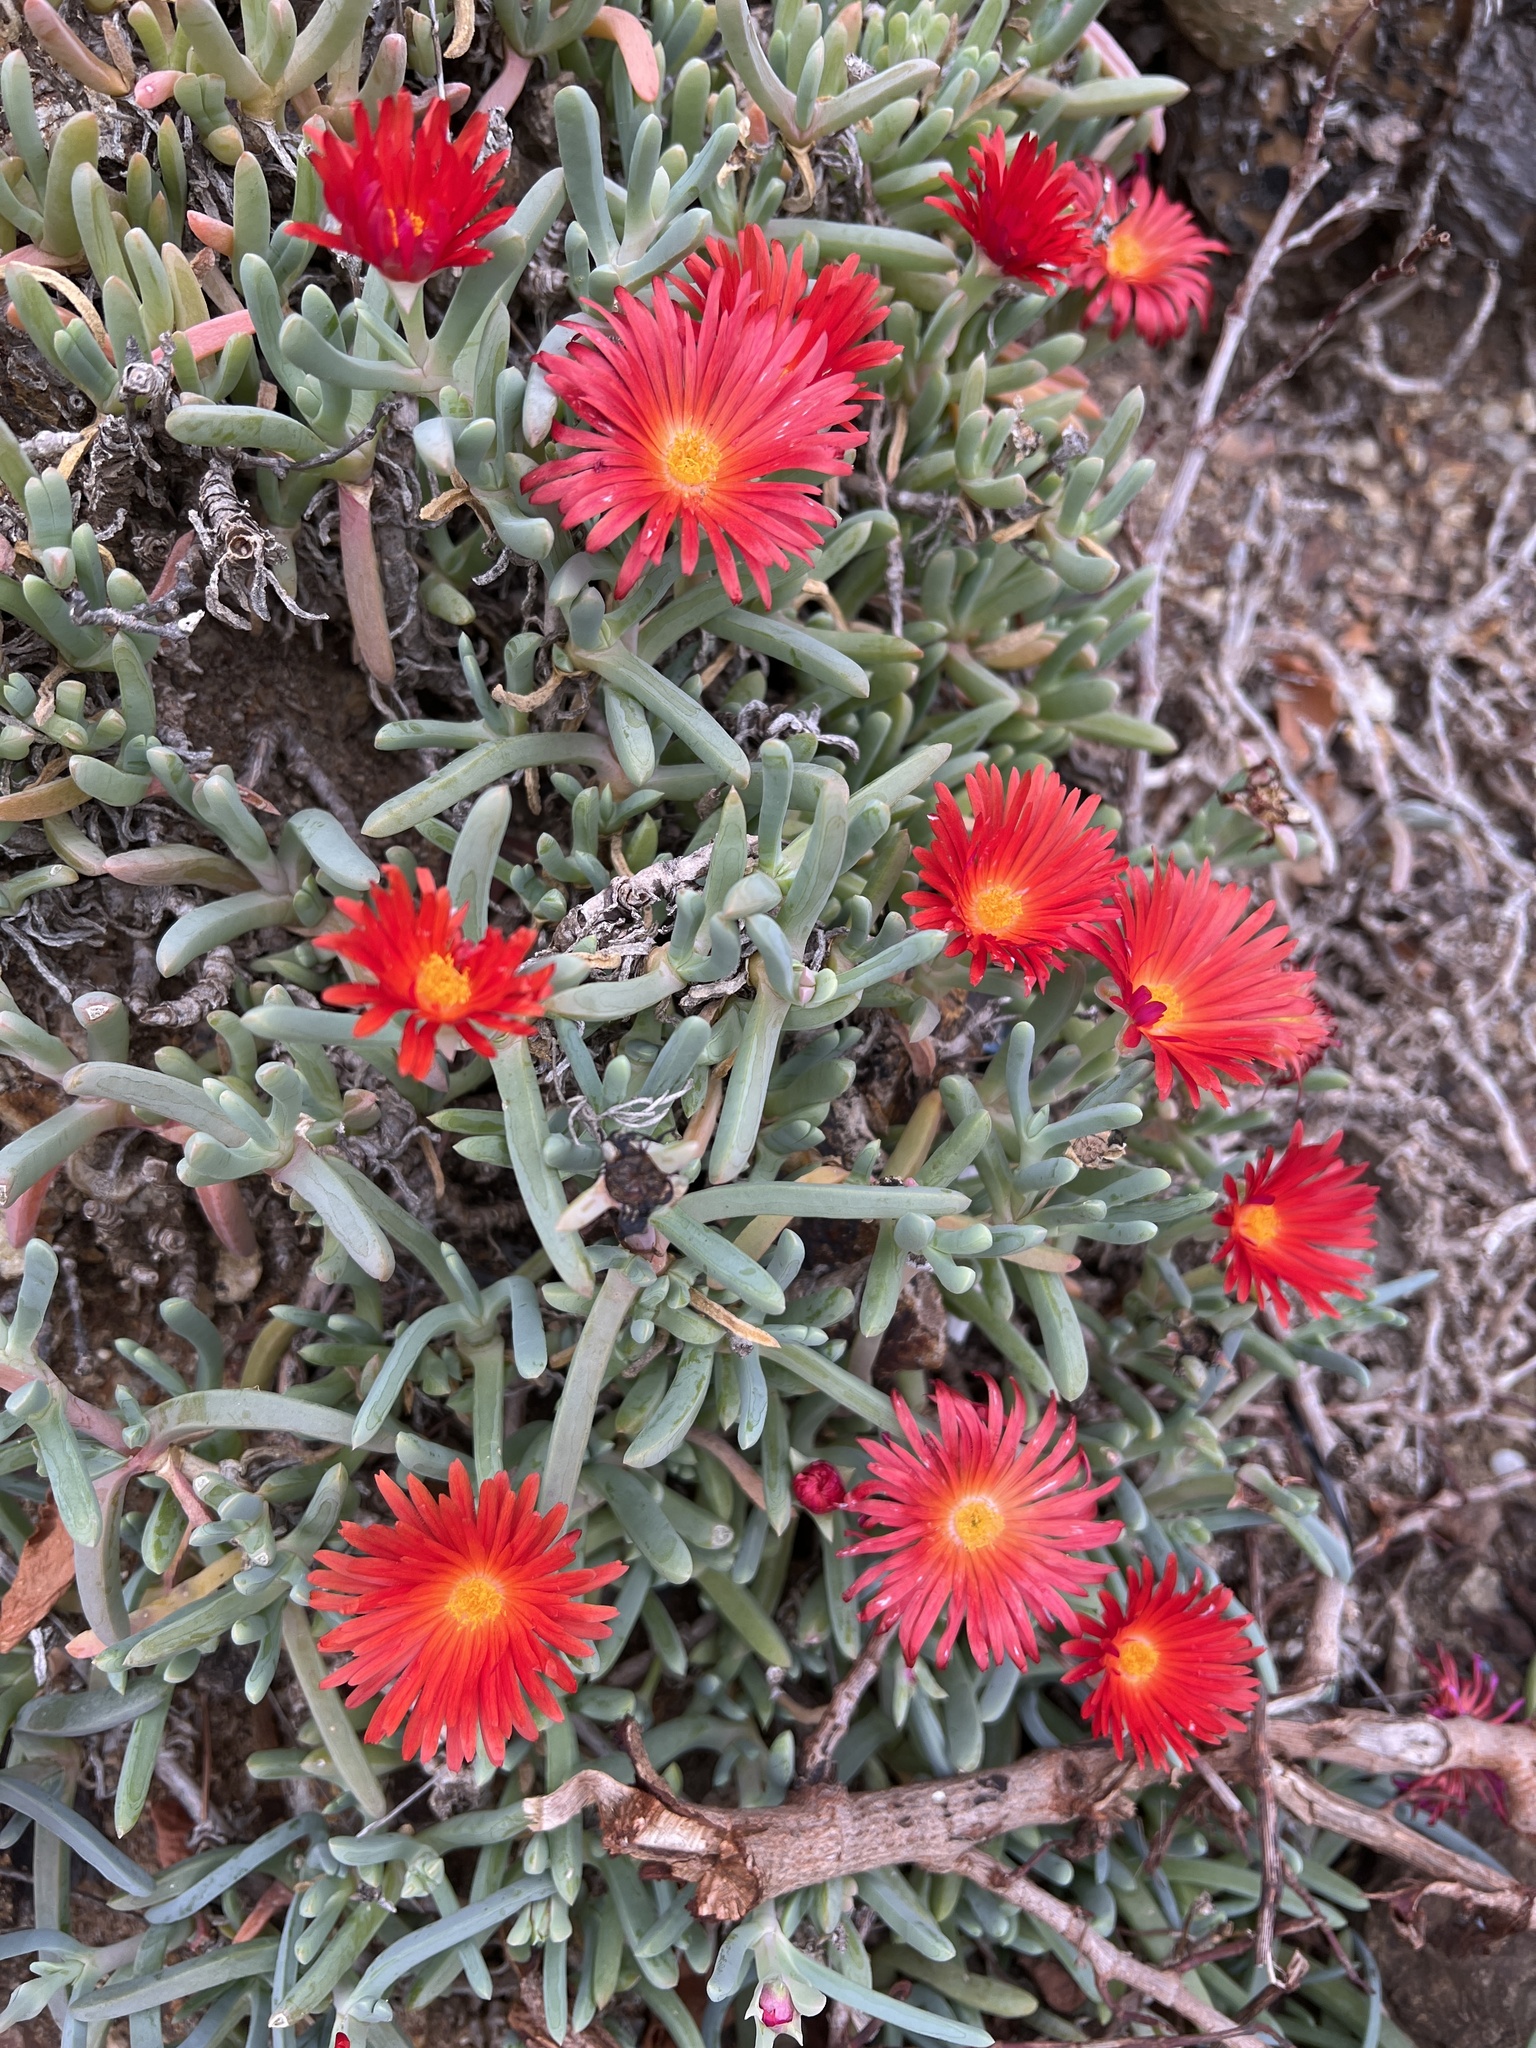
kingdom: Plantae
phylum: Tracheophyta
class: Magnoliopsida
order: Caryophyllales
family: Aizoaceae
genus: Malephora
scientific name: Malephora crocea
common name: Coppery mesemb
